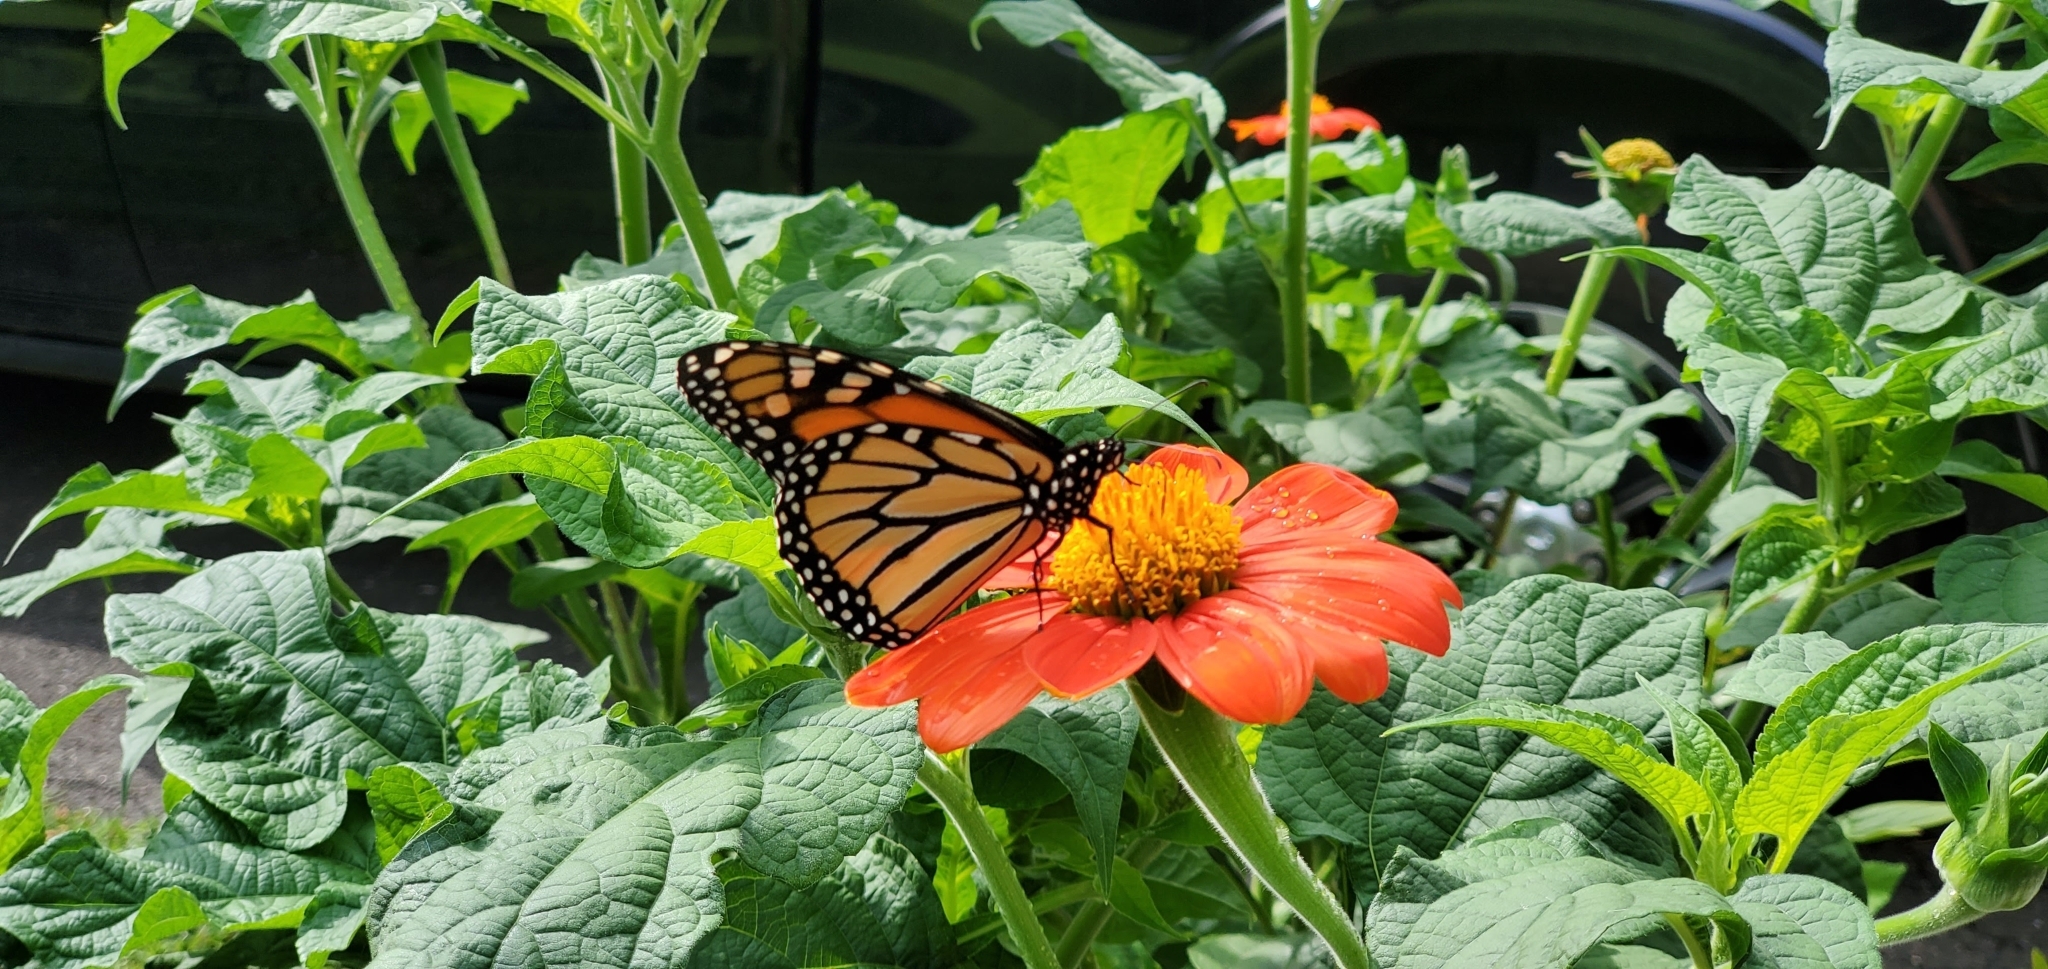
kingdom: Animalia
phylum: Arthropoda
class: Insecta
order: Lepidoptera
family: Nymphalidae
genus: Danaus
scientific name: Danaus plexippus
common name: Monarch
